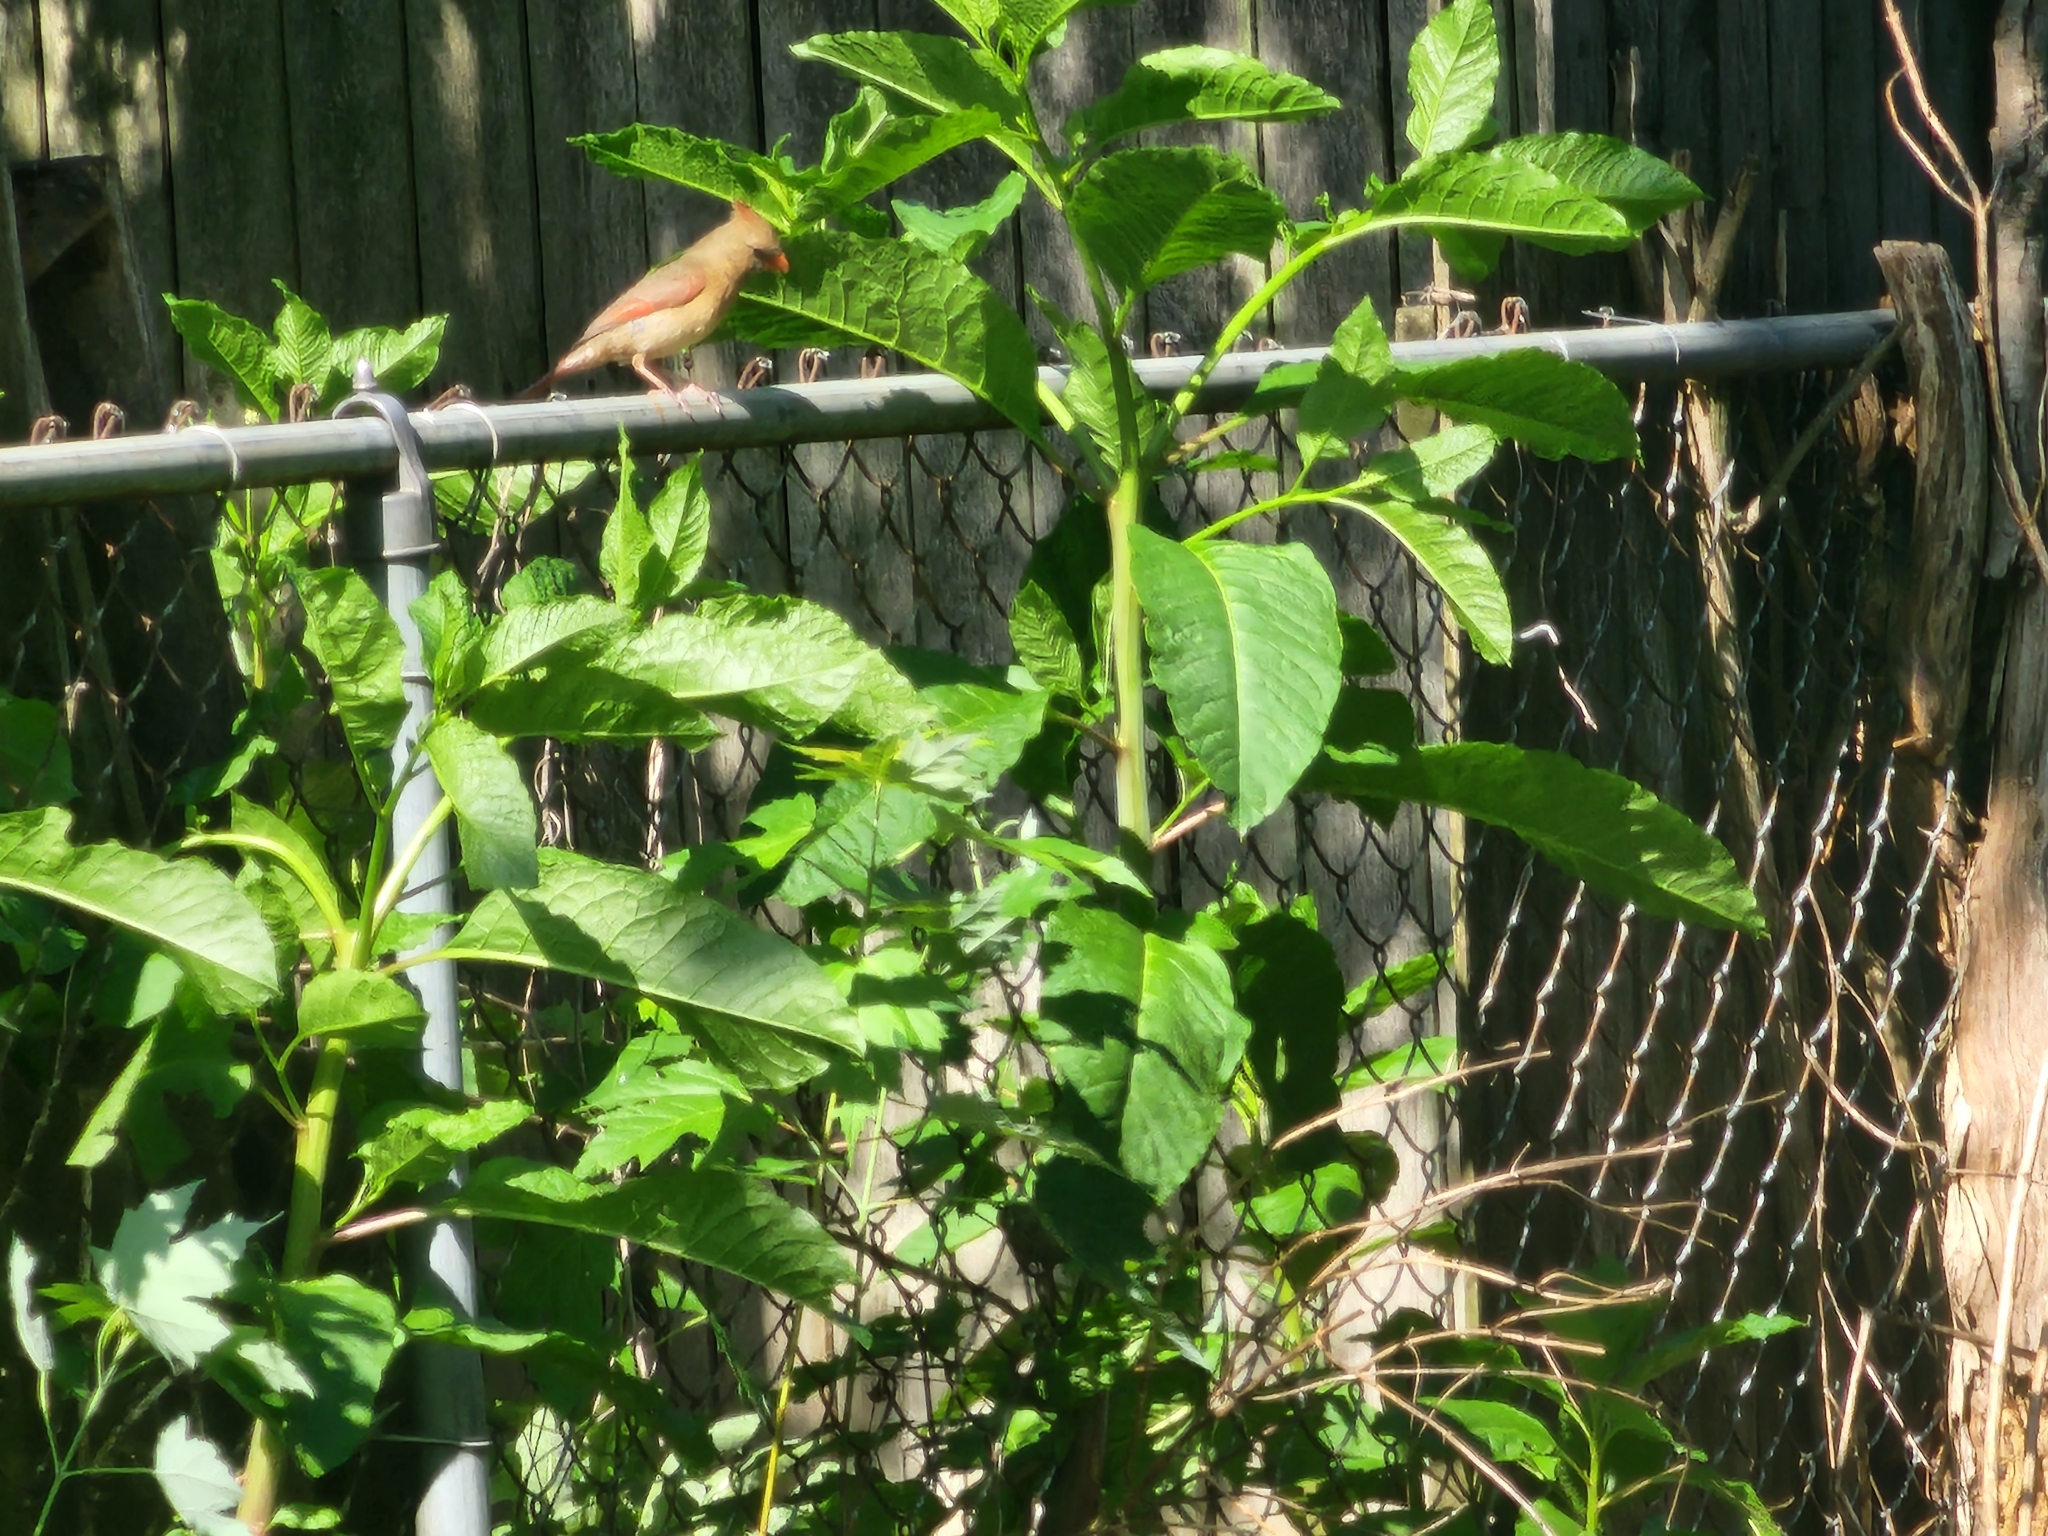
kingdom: Animalia
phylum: Chordata
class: Aves
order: Passeriformes
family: Cardinalidae
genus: Cardinalis
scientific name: Cardinalis cardinalis
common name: Northern cardinal
